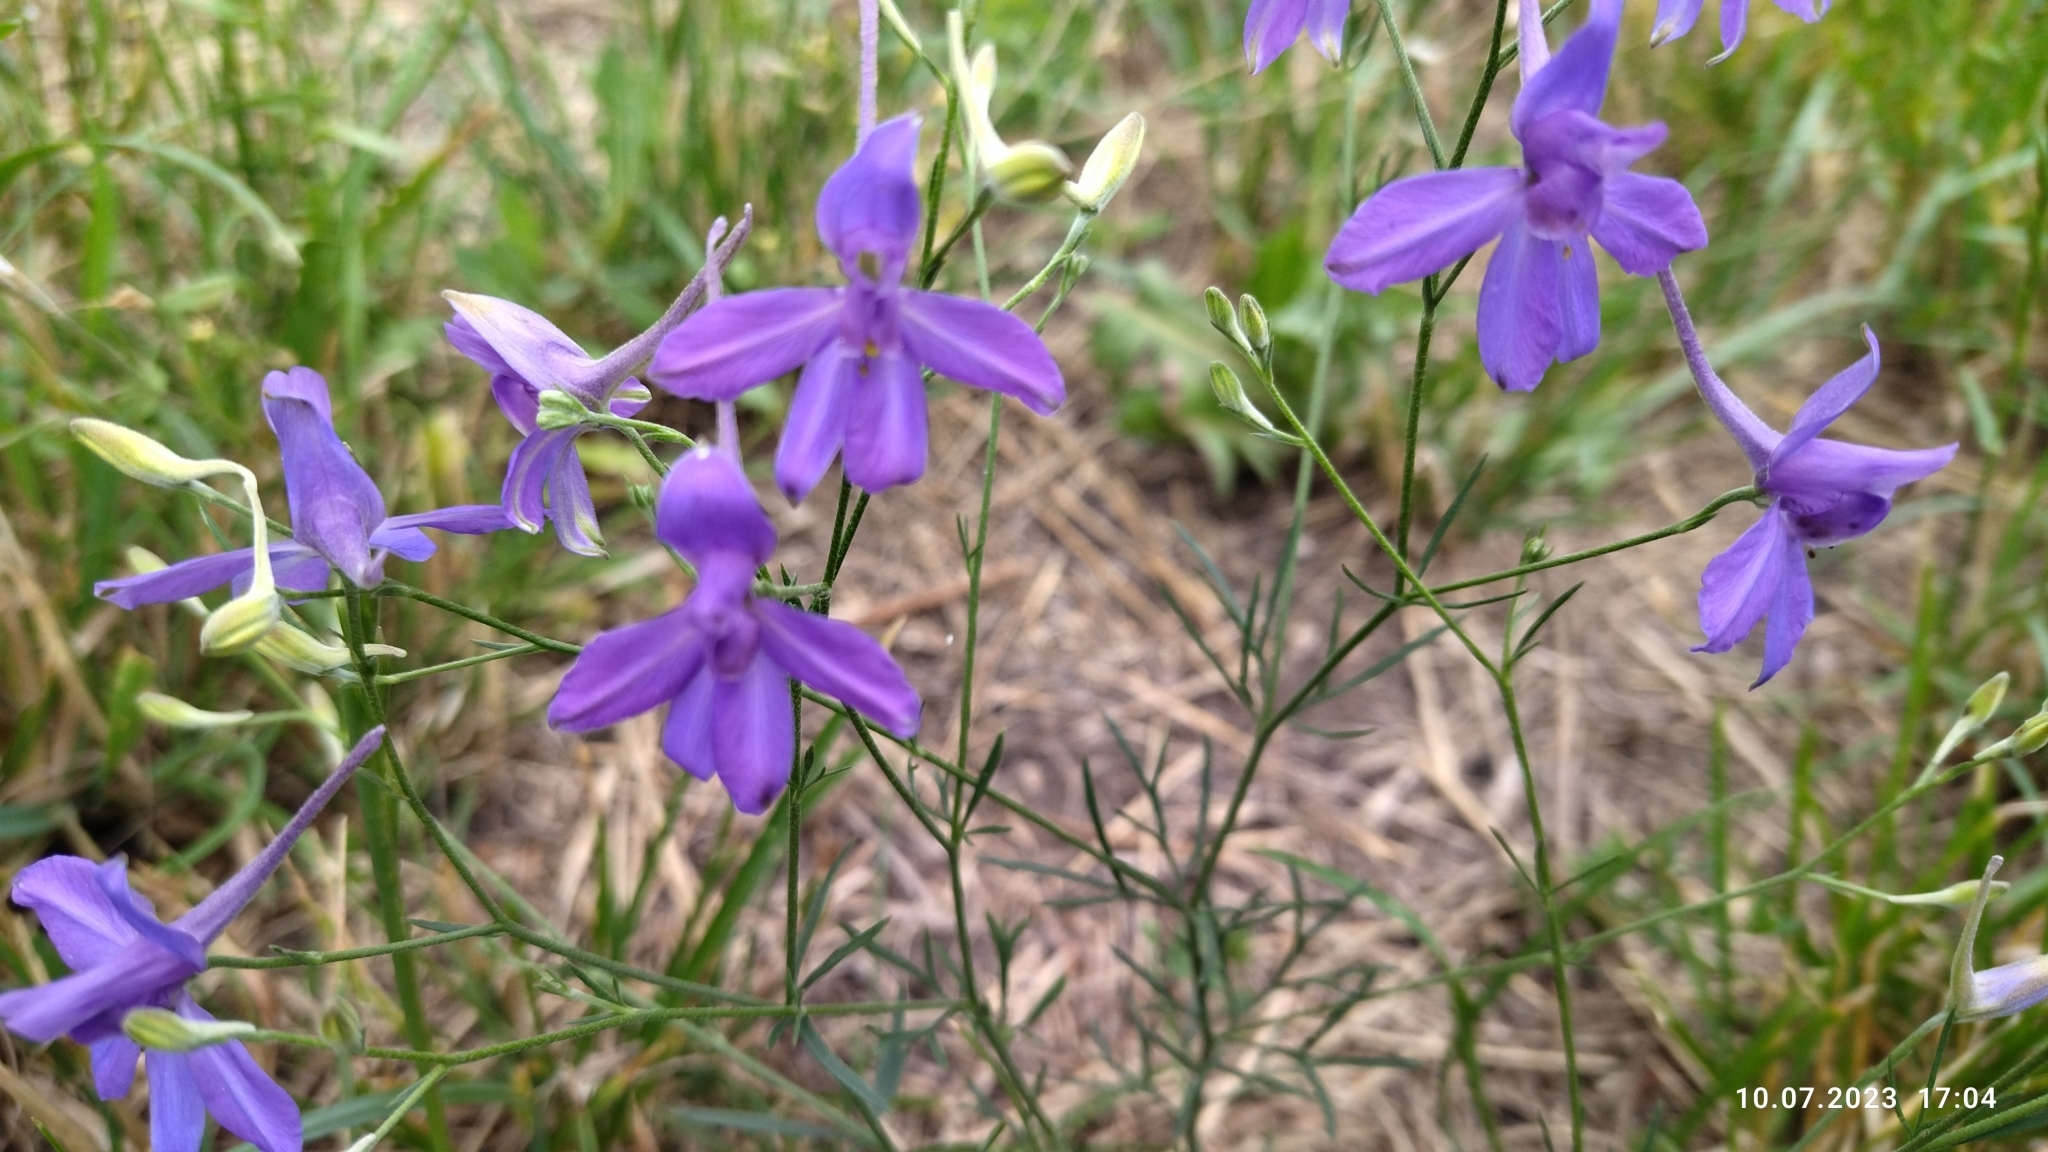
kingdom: Plantae
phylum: Tracheophyta
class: Magnoliopsida
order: Ranunculales
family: Ranunculaceae
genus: Delphinium
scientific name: Delphinium consolida
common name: Branching larkspur
